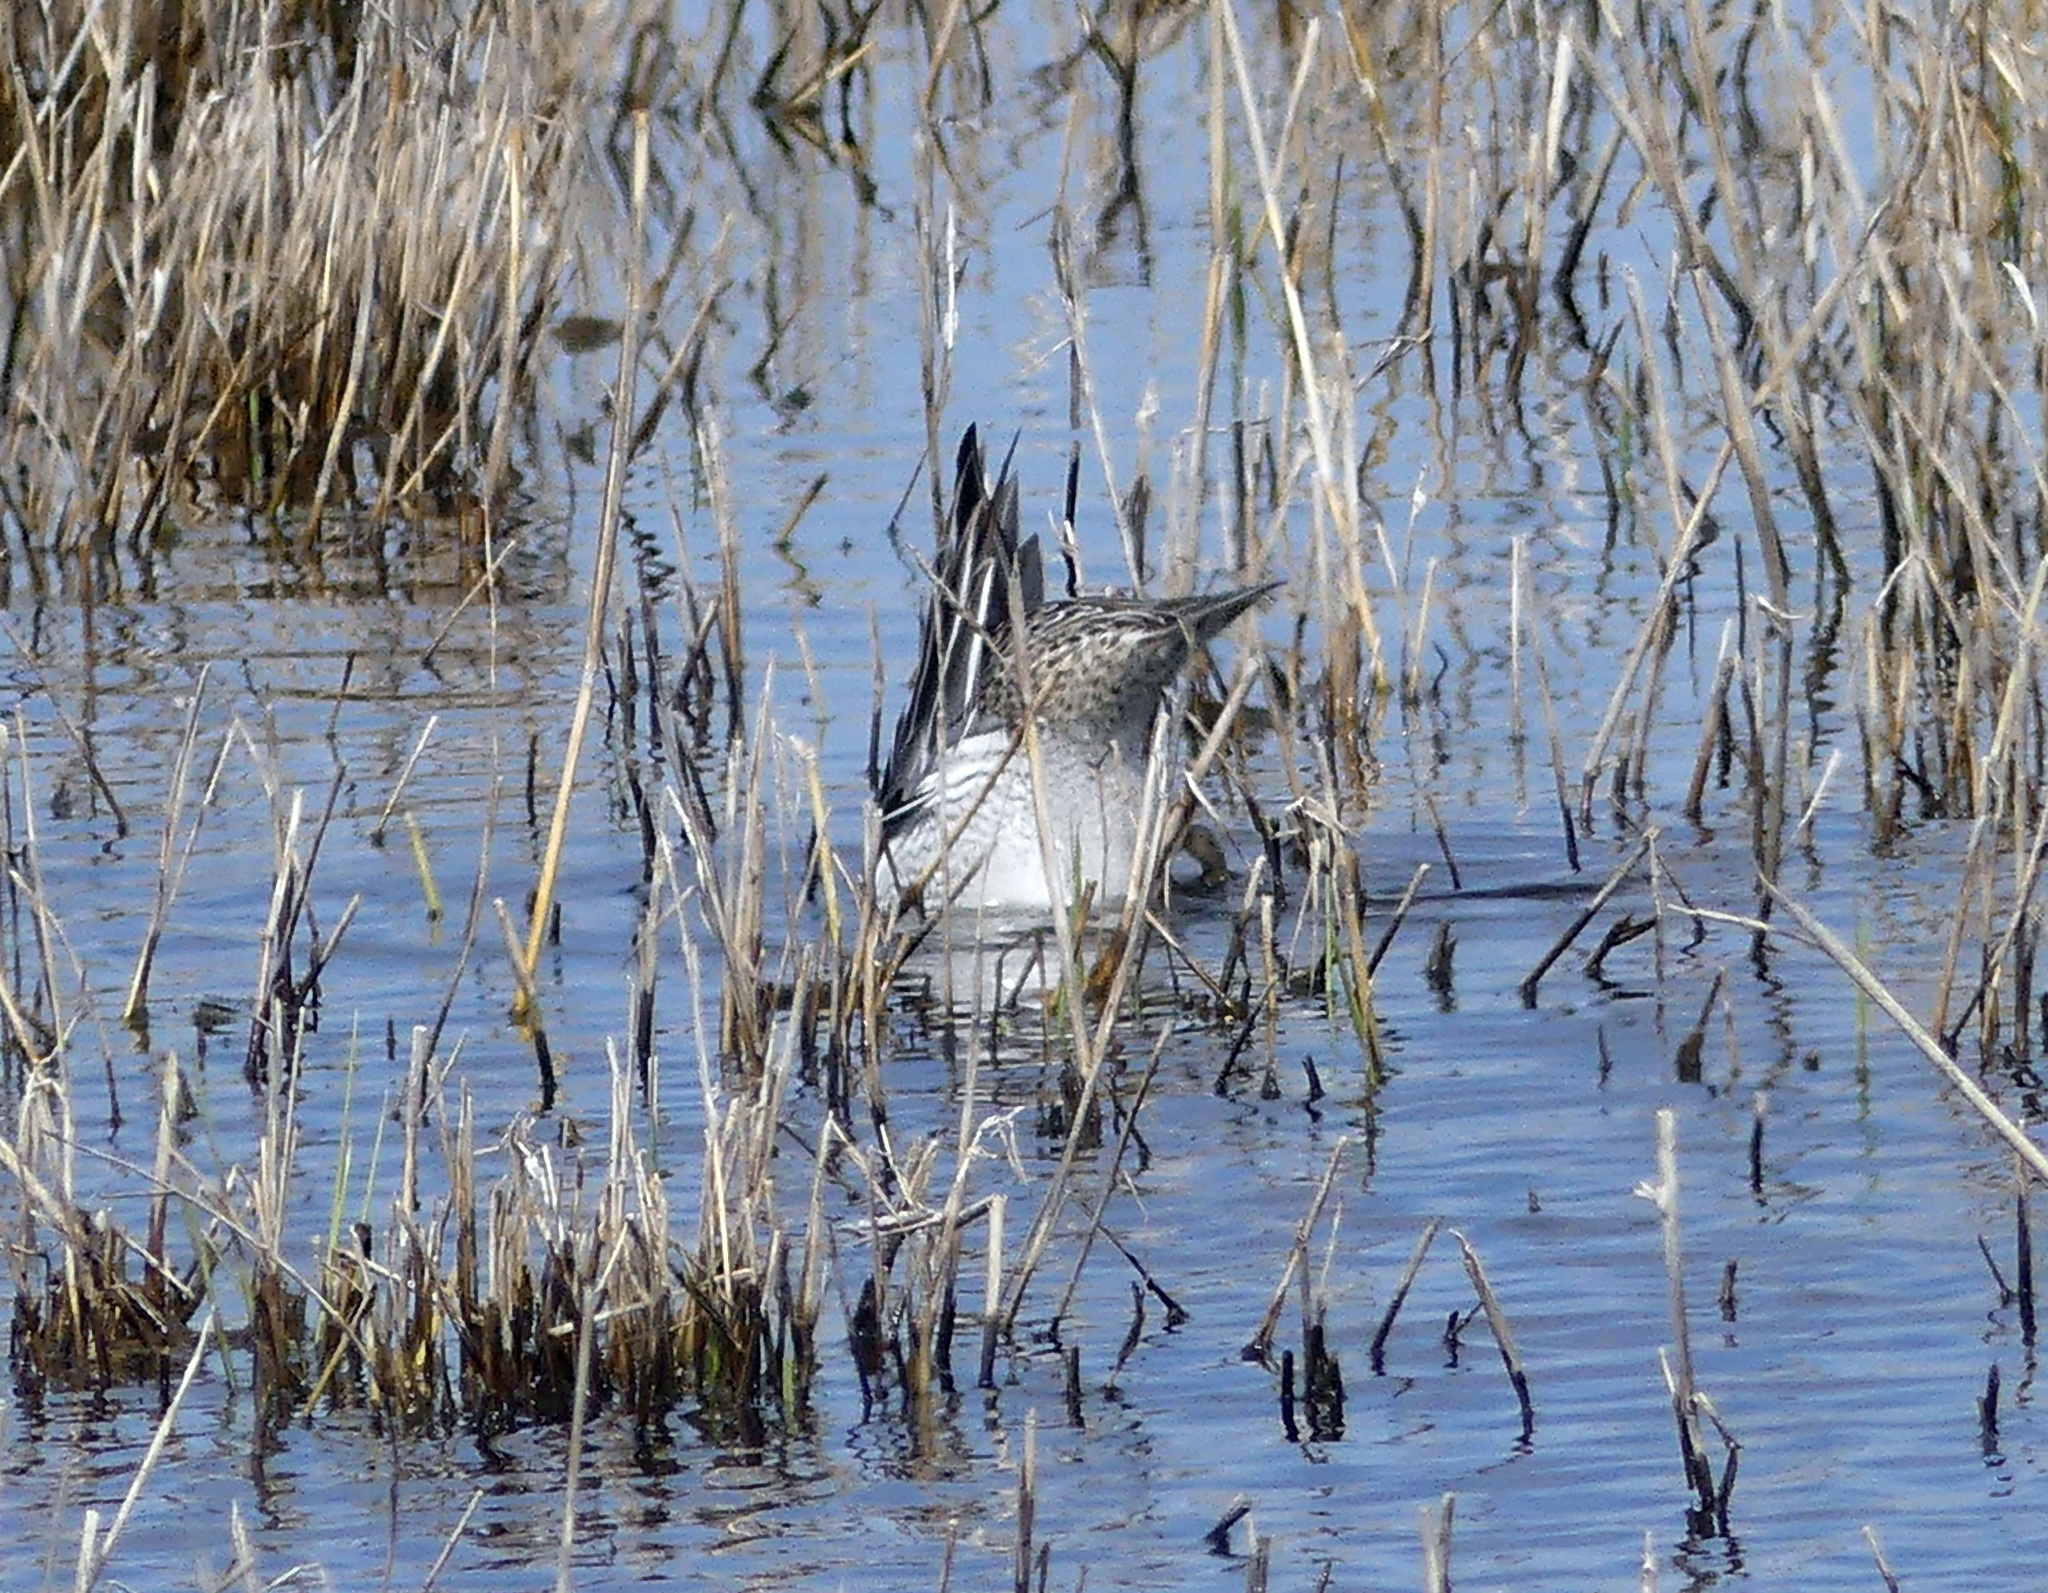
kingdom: Animalia
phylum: Chordata
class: Aves
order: Anseriformes
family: Anatidae
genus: Spatula
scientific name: Spatula querquedula
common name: Garganey
